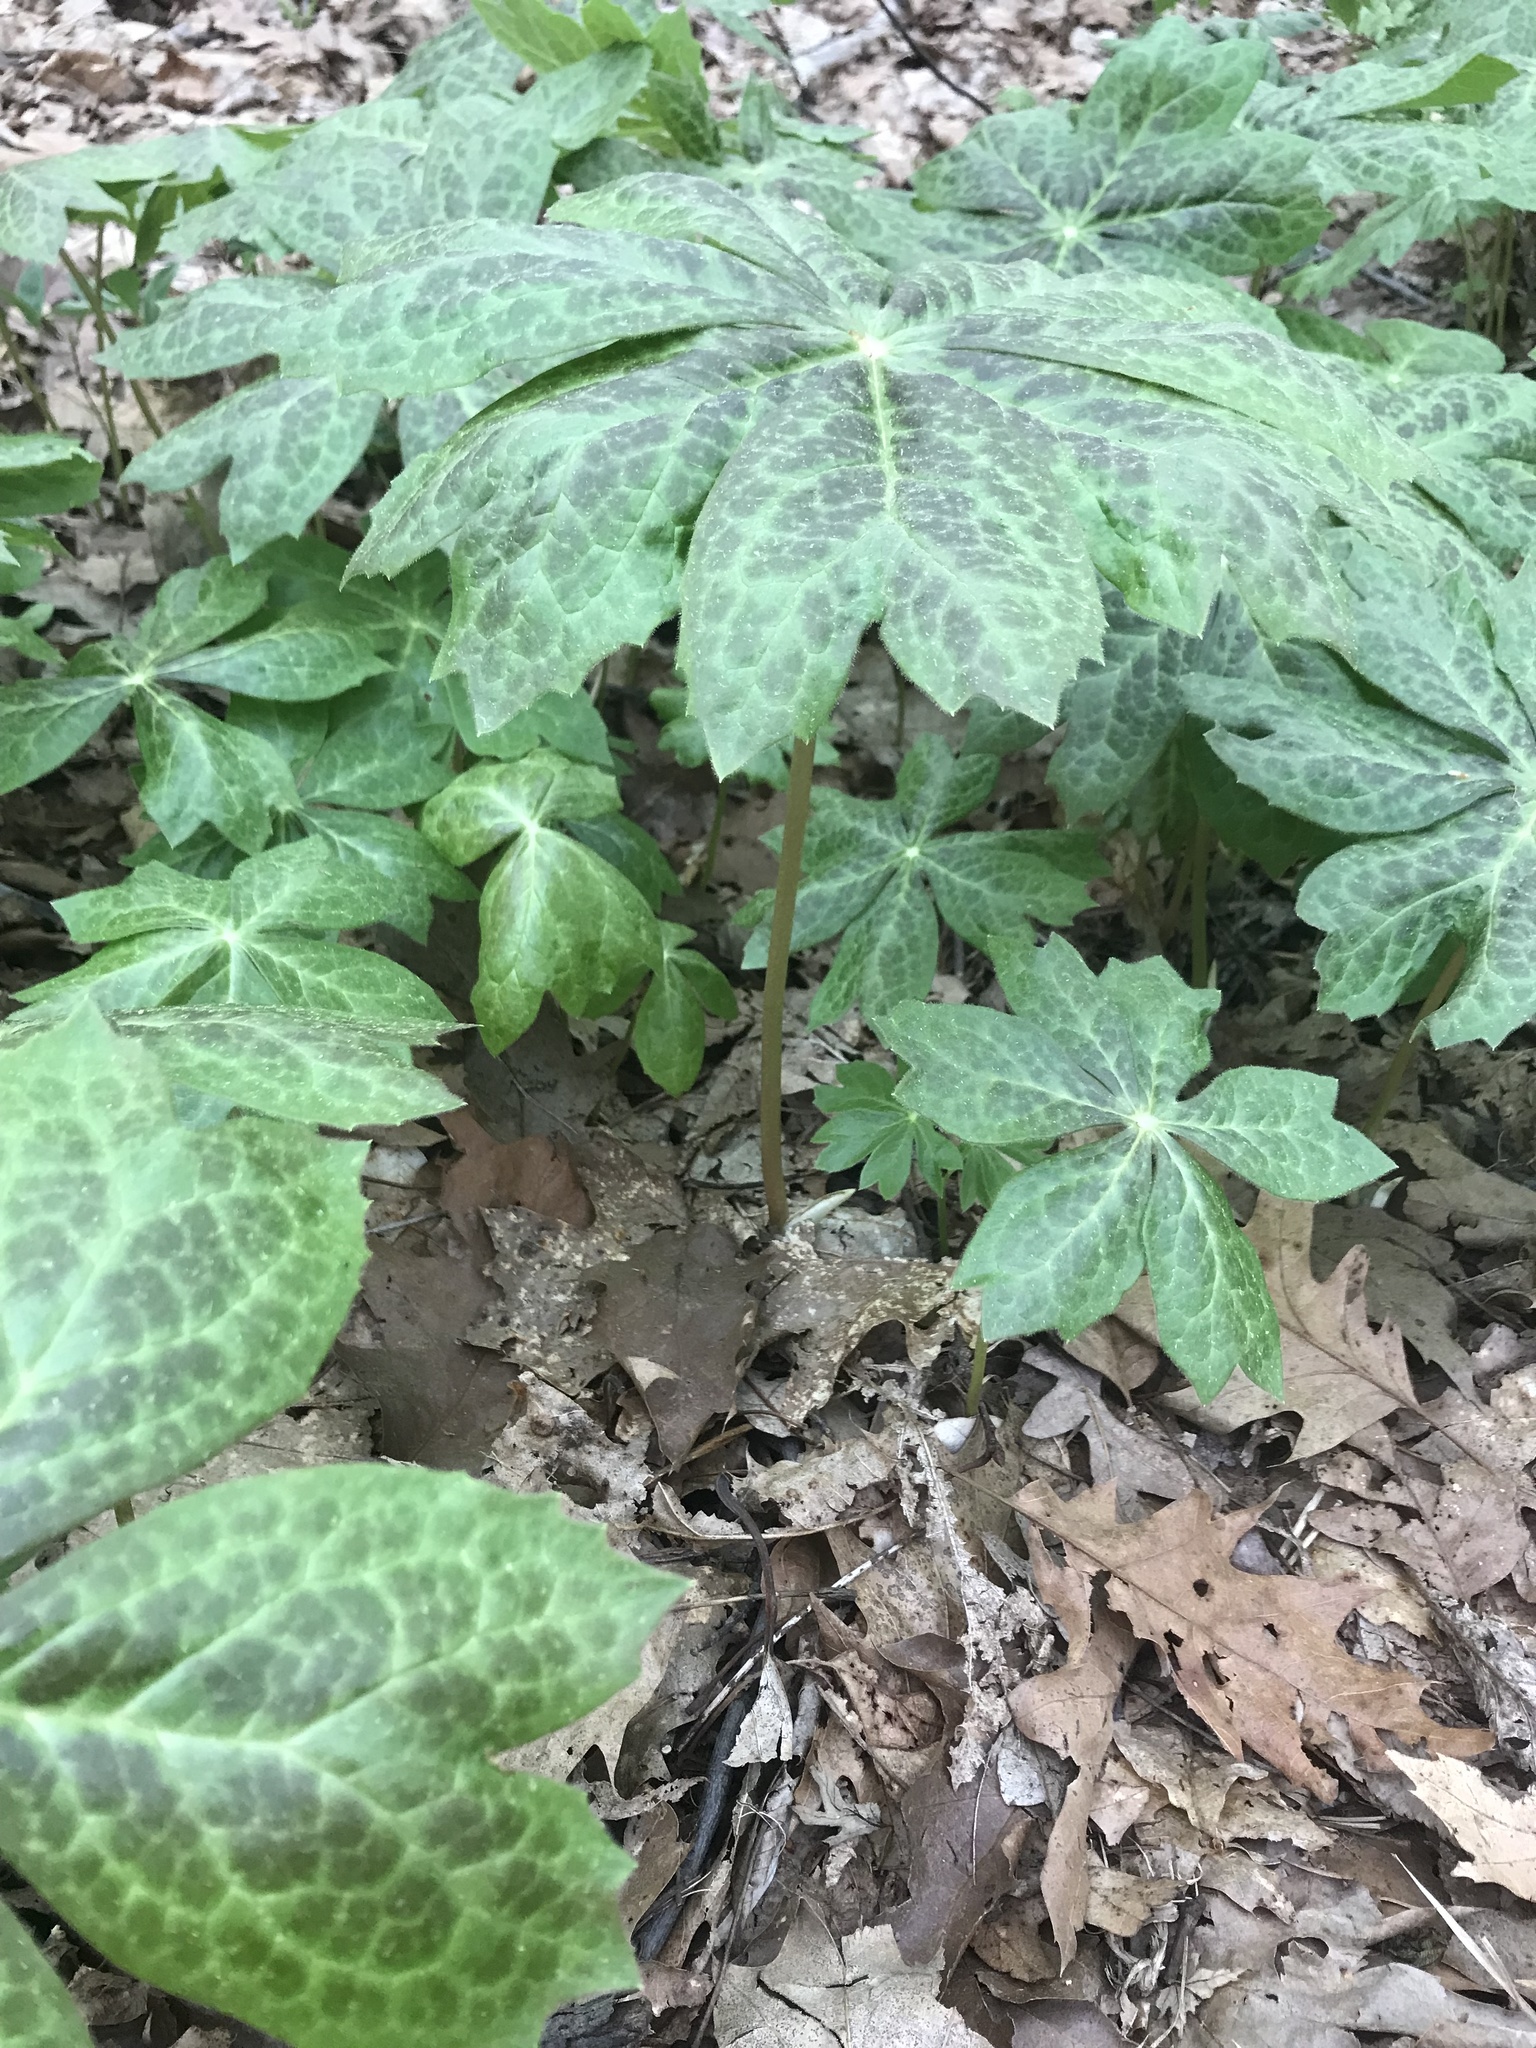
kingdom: Plantae
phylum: Tracheophyta
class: Magnoliopsida
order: Ranunculales
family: Berberidaceae
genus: Podophyllum
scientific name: Podophyllum peltatum
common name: Wild mandrake
